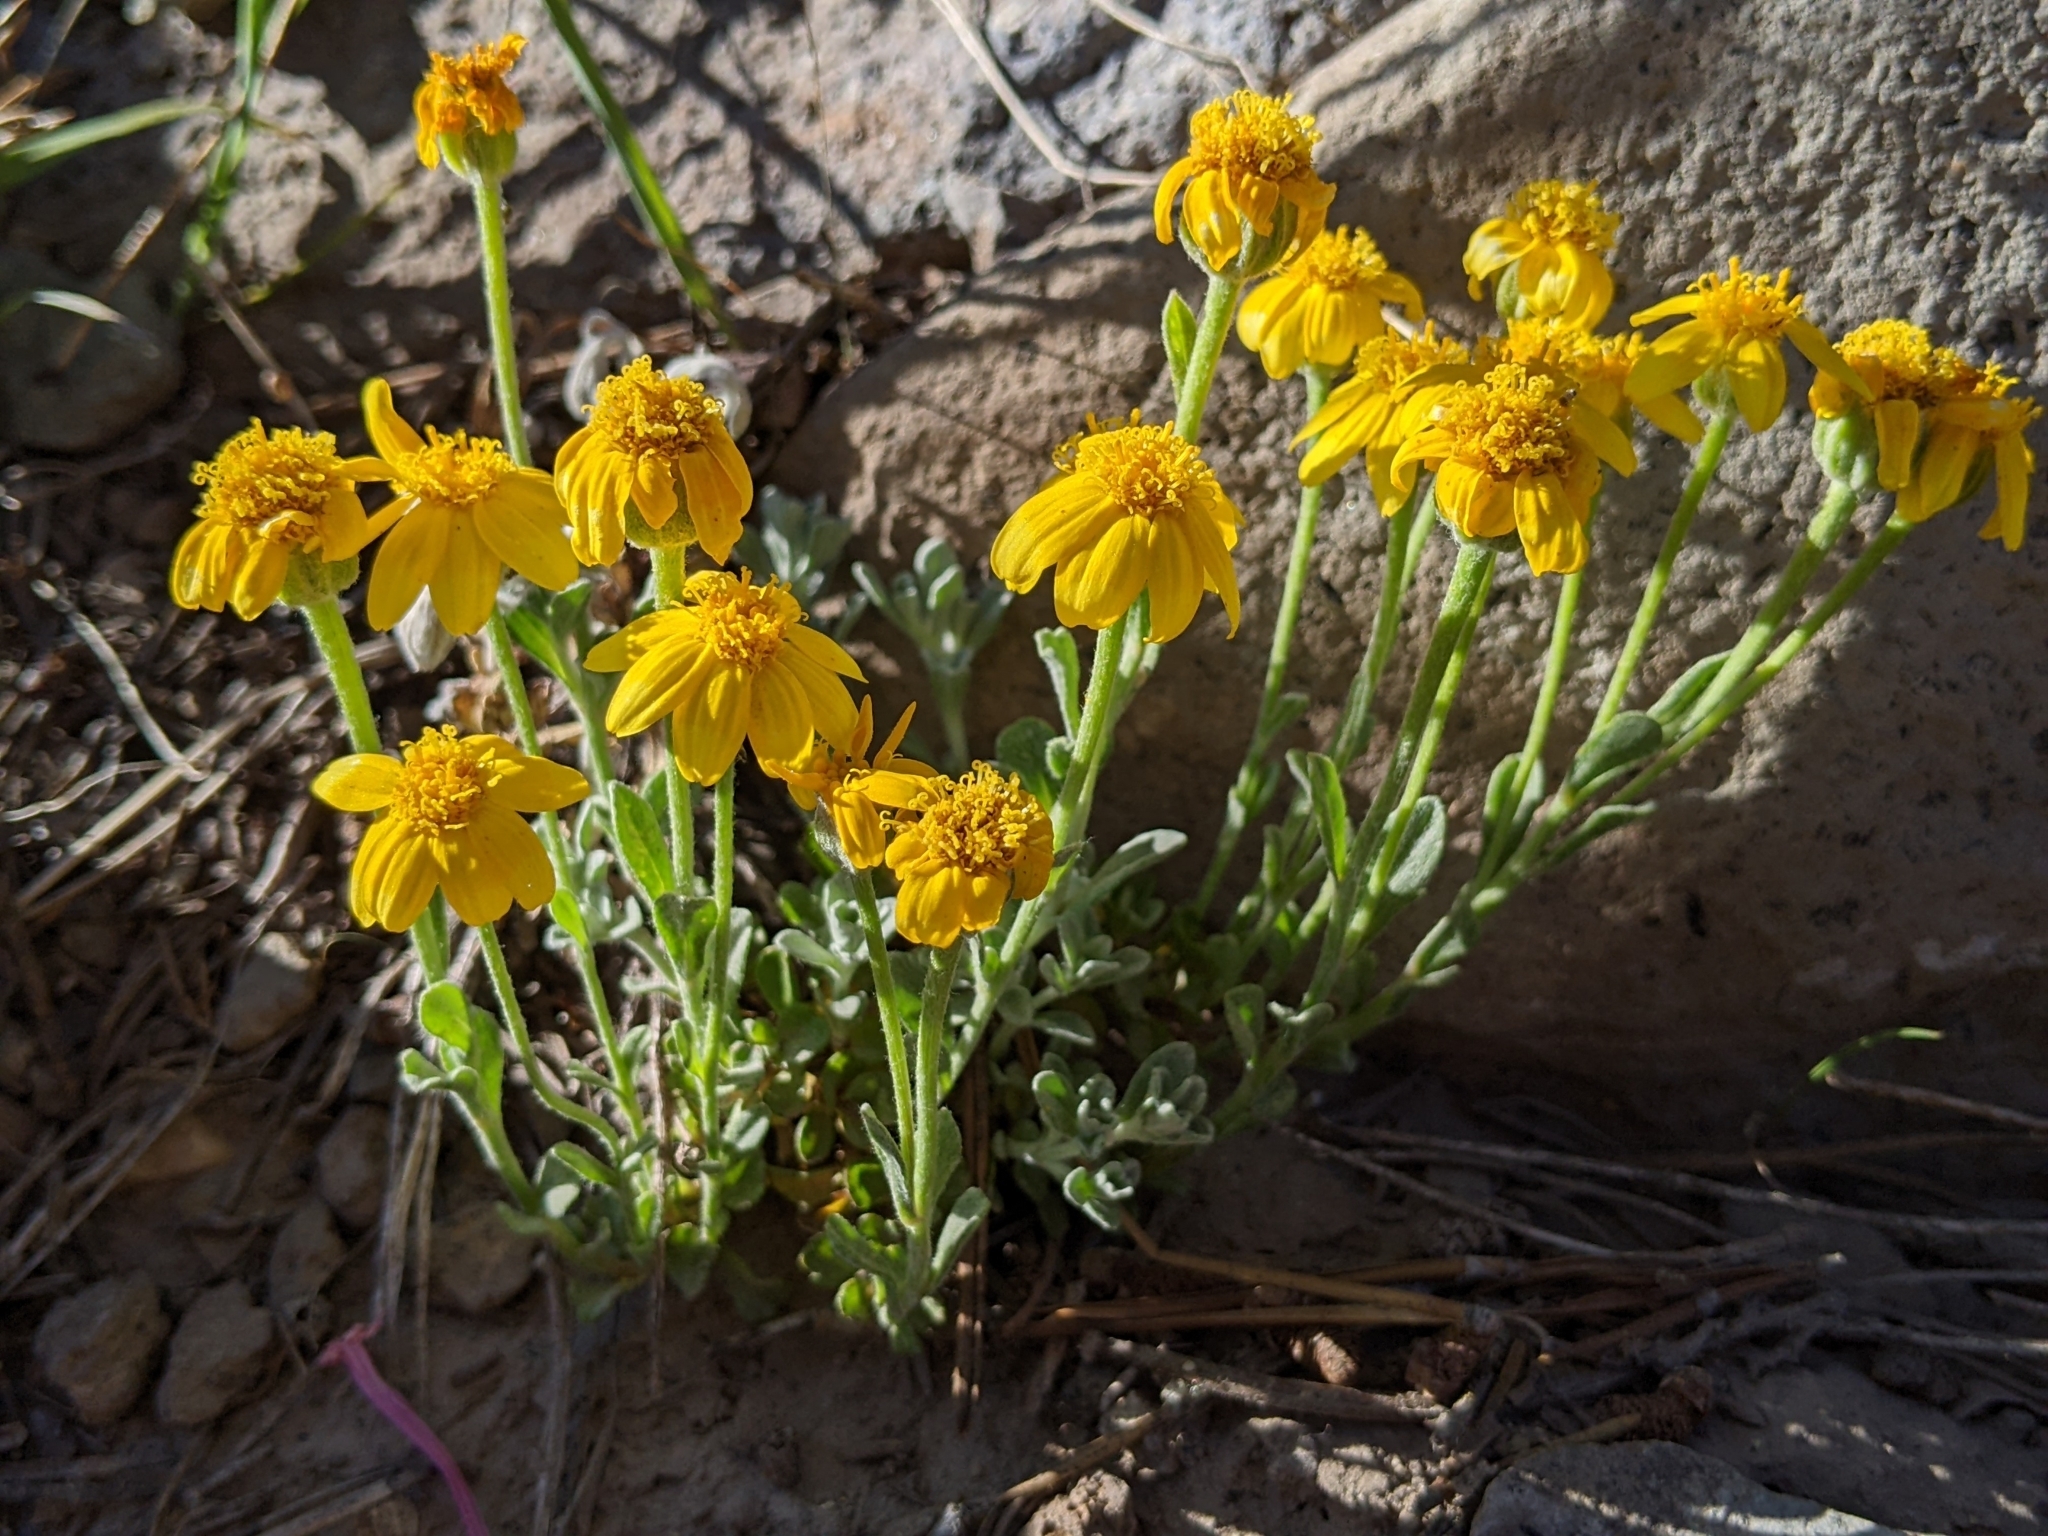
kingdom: Plantae
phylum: Tracheophyta
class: Magnoliopsida
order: Asterales
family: Asteraceae
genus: Eriophyllum
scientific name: Eriophyllum lanatum
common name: Common woolly-sunflower
